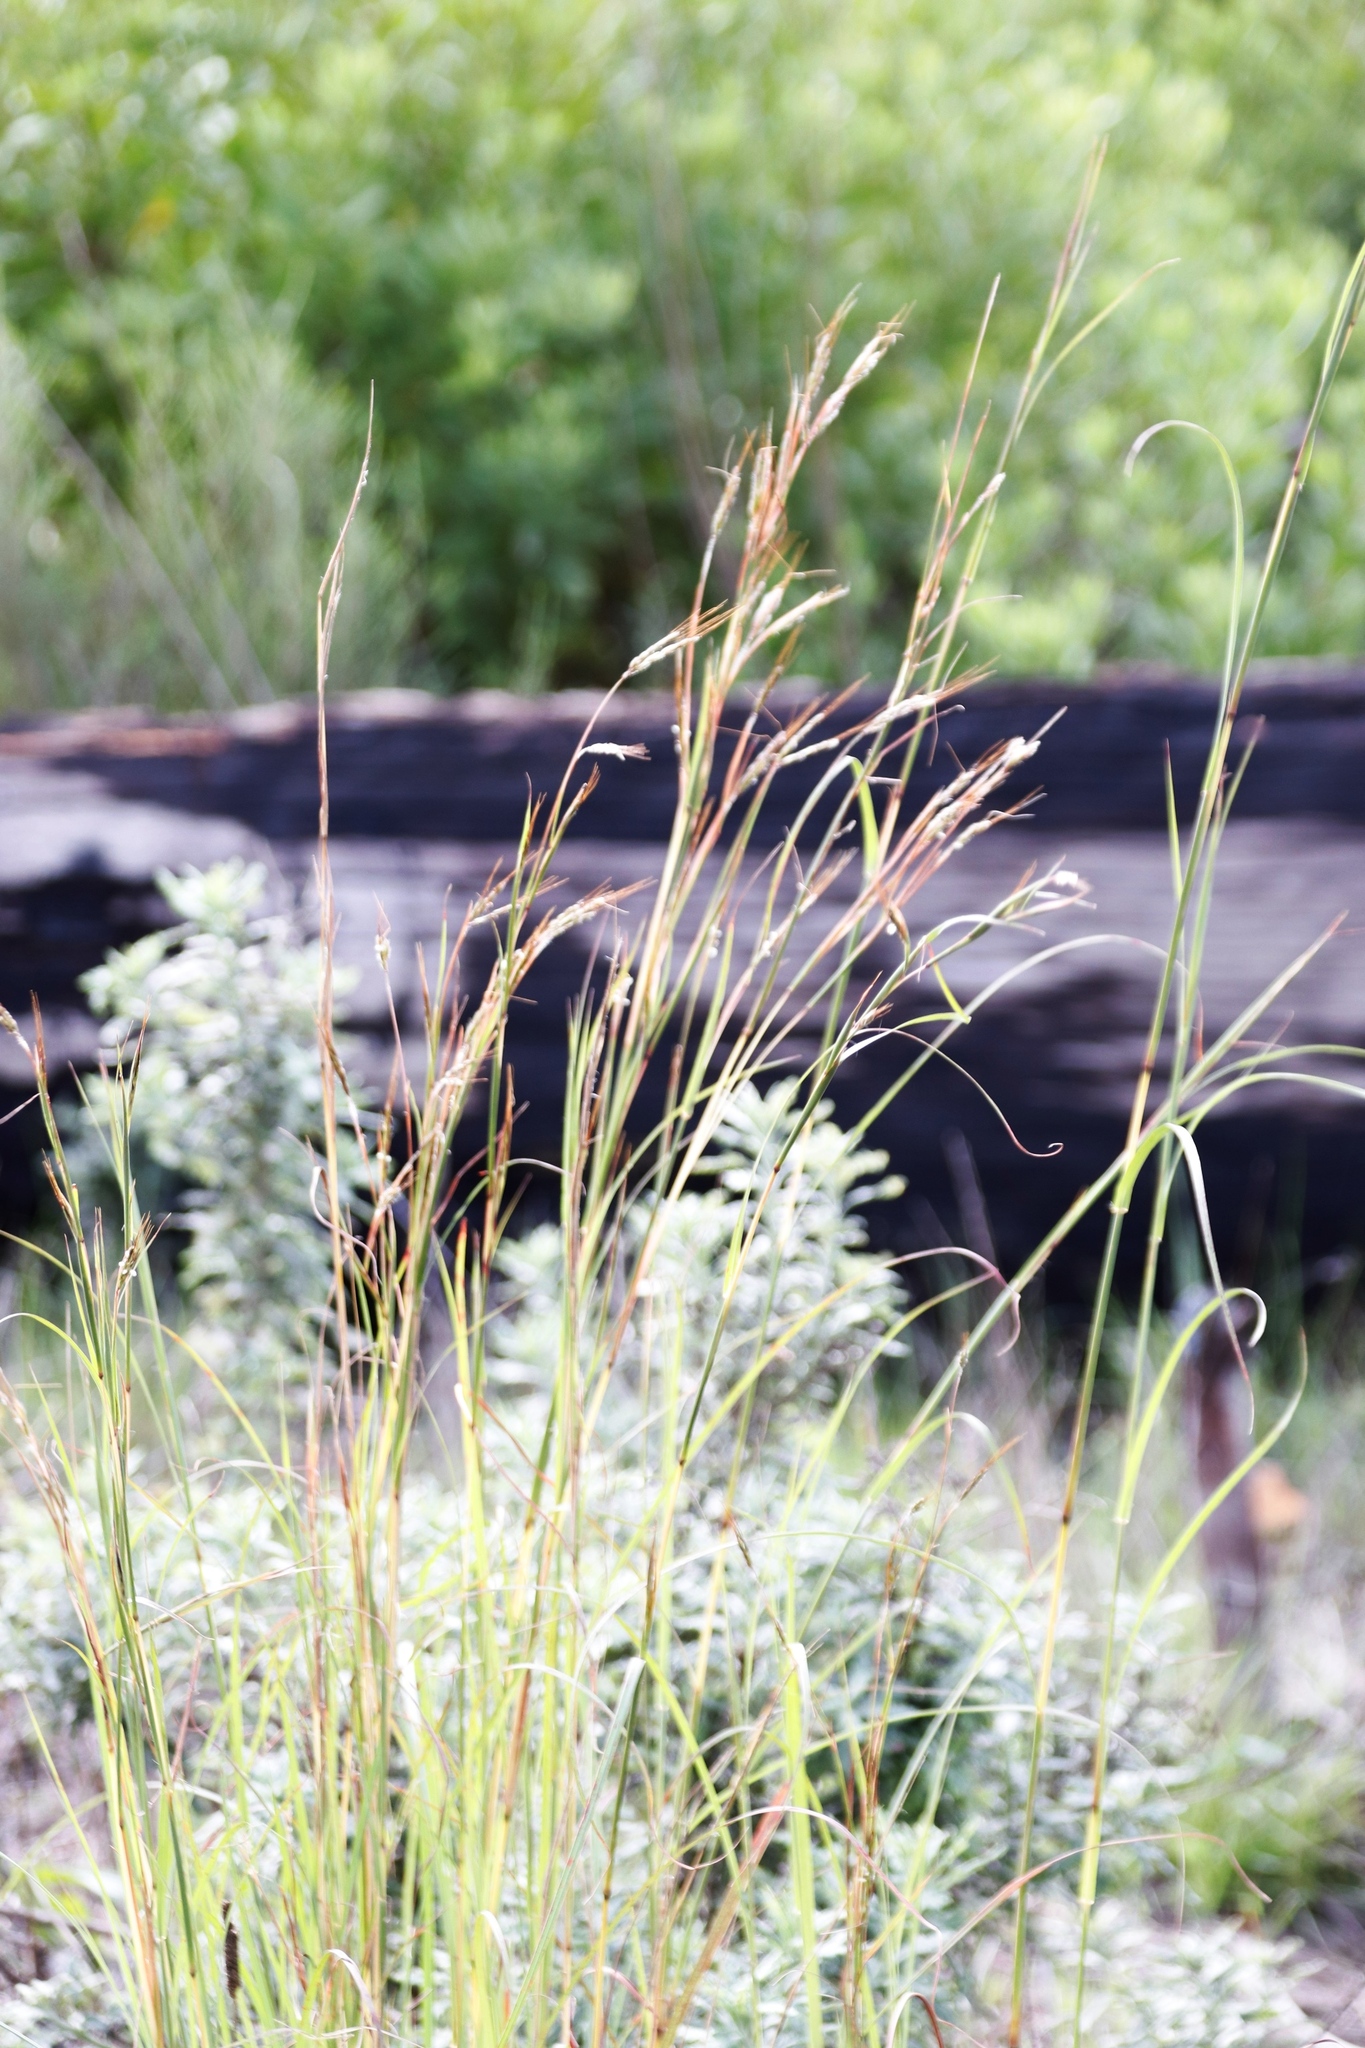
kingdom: Plantae
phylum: Tracheophyta
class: Liliopsida
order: Poales
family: Poaceae
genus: Hyparrhenia
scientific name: Hyparrhenia hirta
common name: Thatching grass
